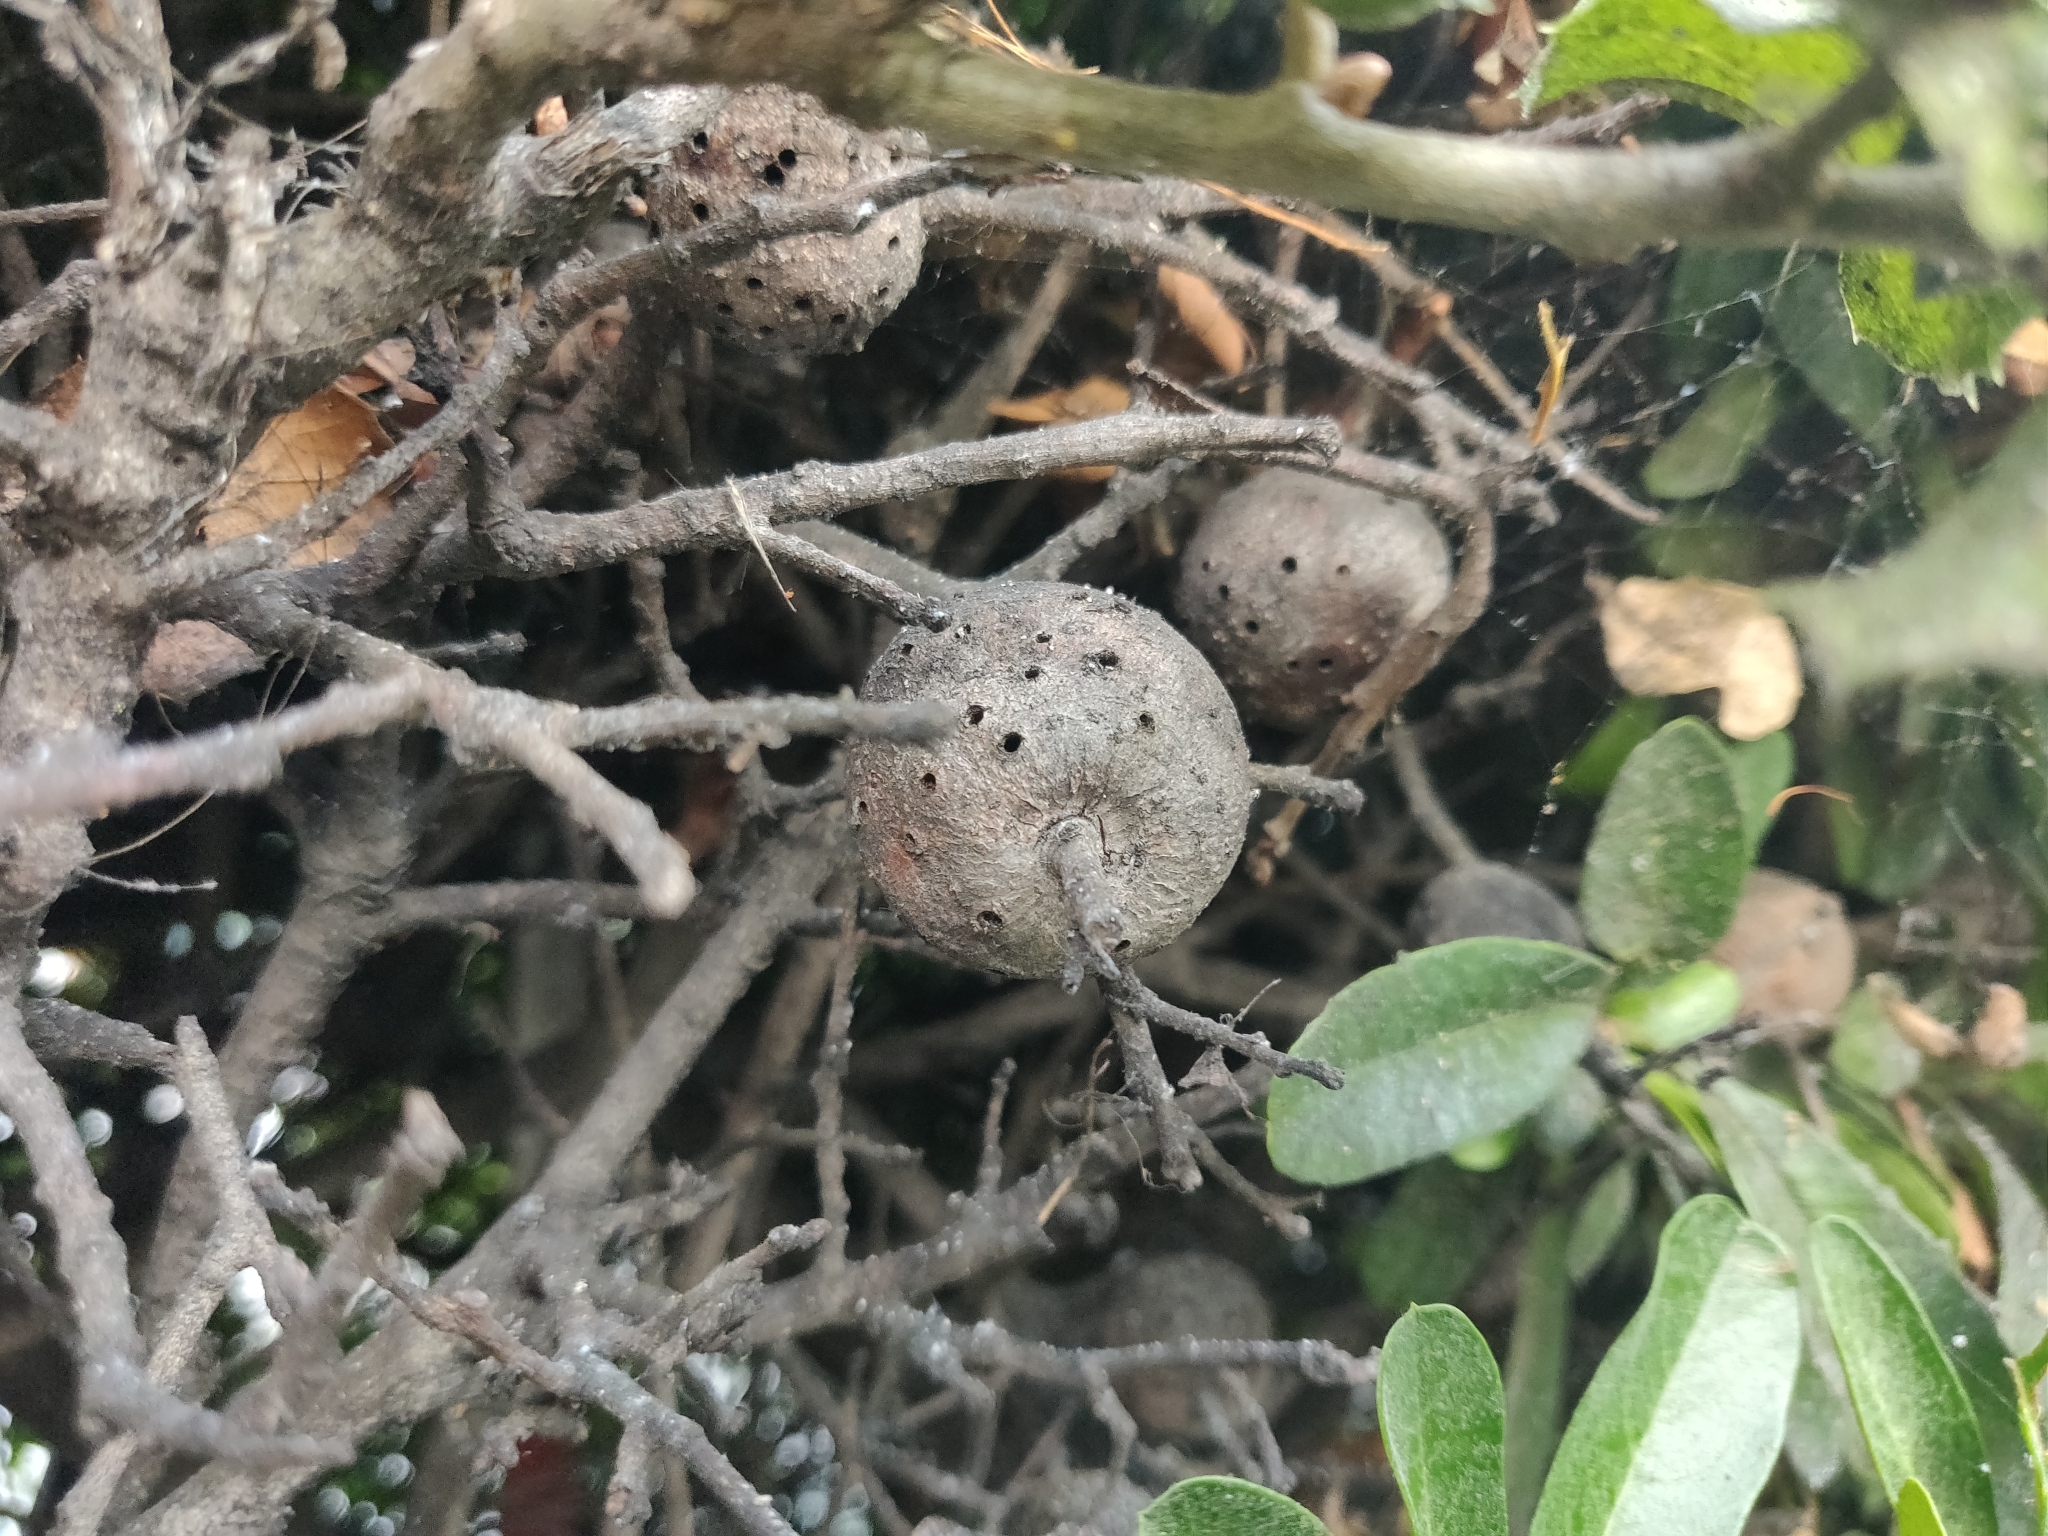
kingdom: Animalia
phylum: Arthropoda
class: Insecta
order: Hymenoptera
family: Cynipidae
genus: Callirhytis
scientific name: Callirhytis
